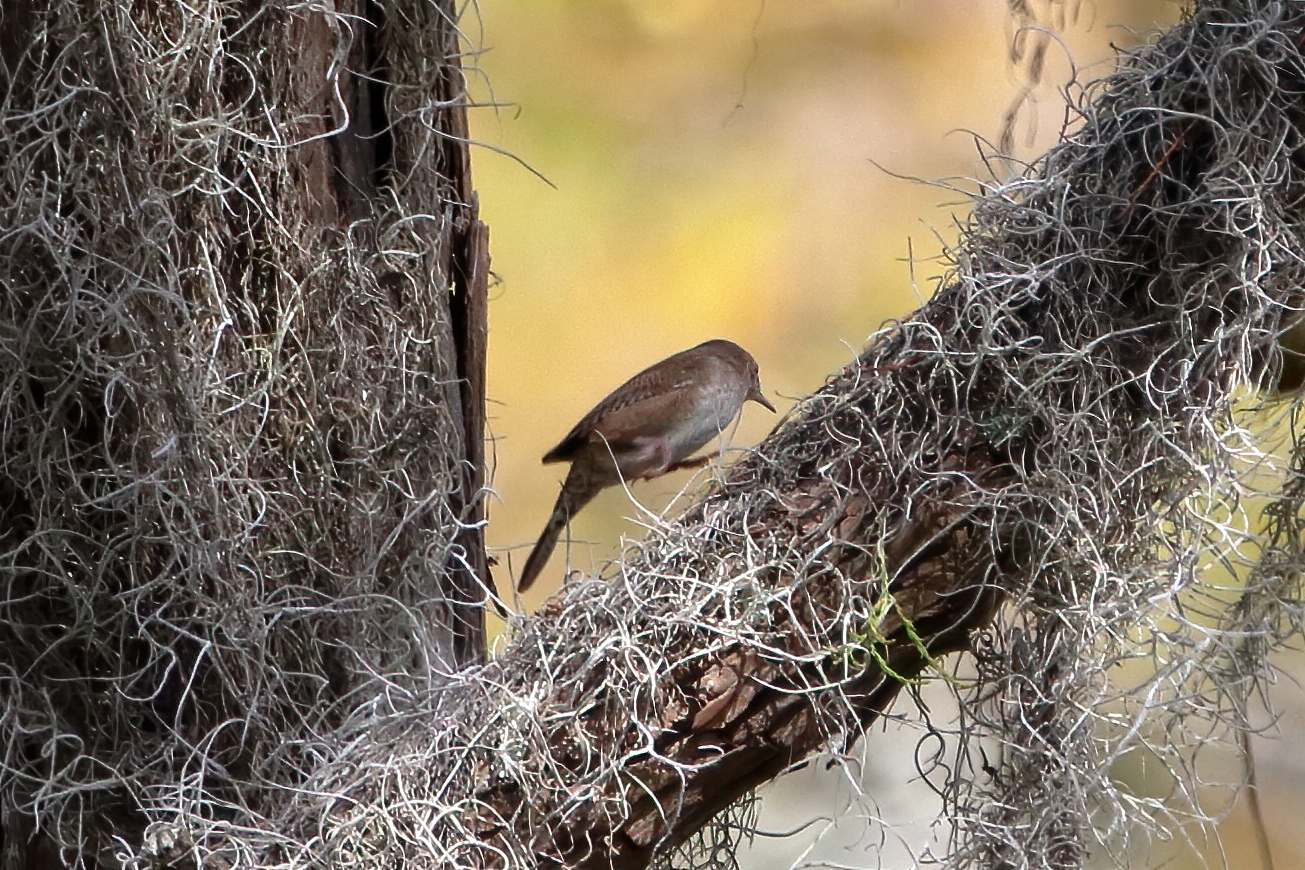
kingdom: Animalia
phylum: Chordata
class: Aves
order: Passeriformes
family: Troglodytidae
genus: Troglodytes
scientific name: Troglodytes aedon
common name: House wren
